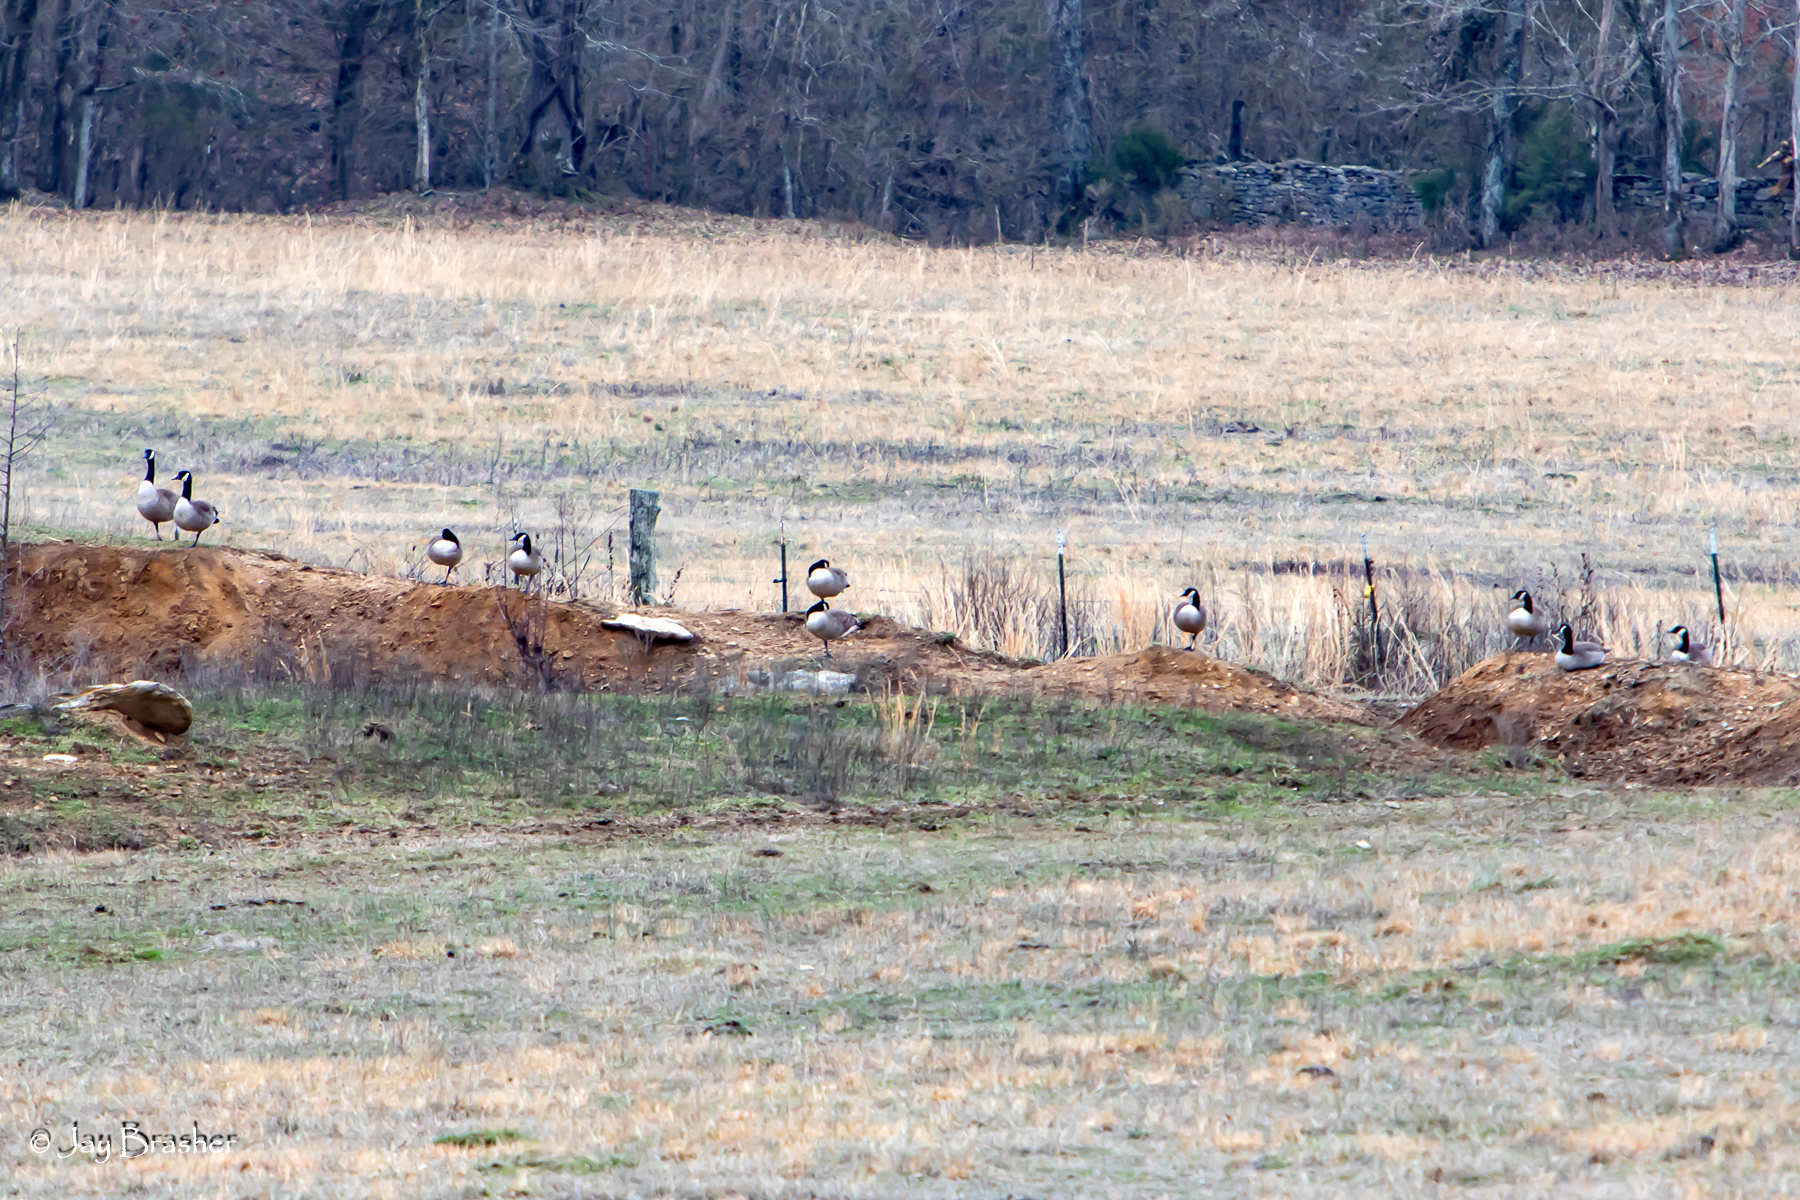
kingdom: Animalia
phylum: Chordata
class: Aves
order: Anseriformes
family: Anatidae
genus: Branta
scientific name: Branta canadensis
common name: Canada goose
